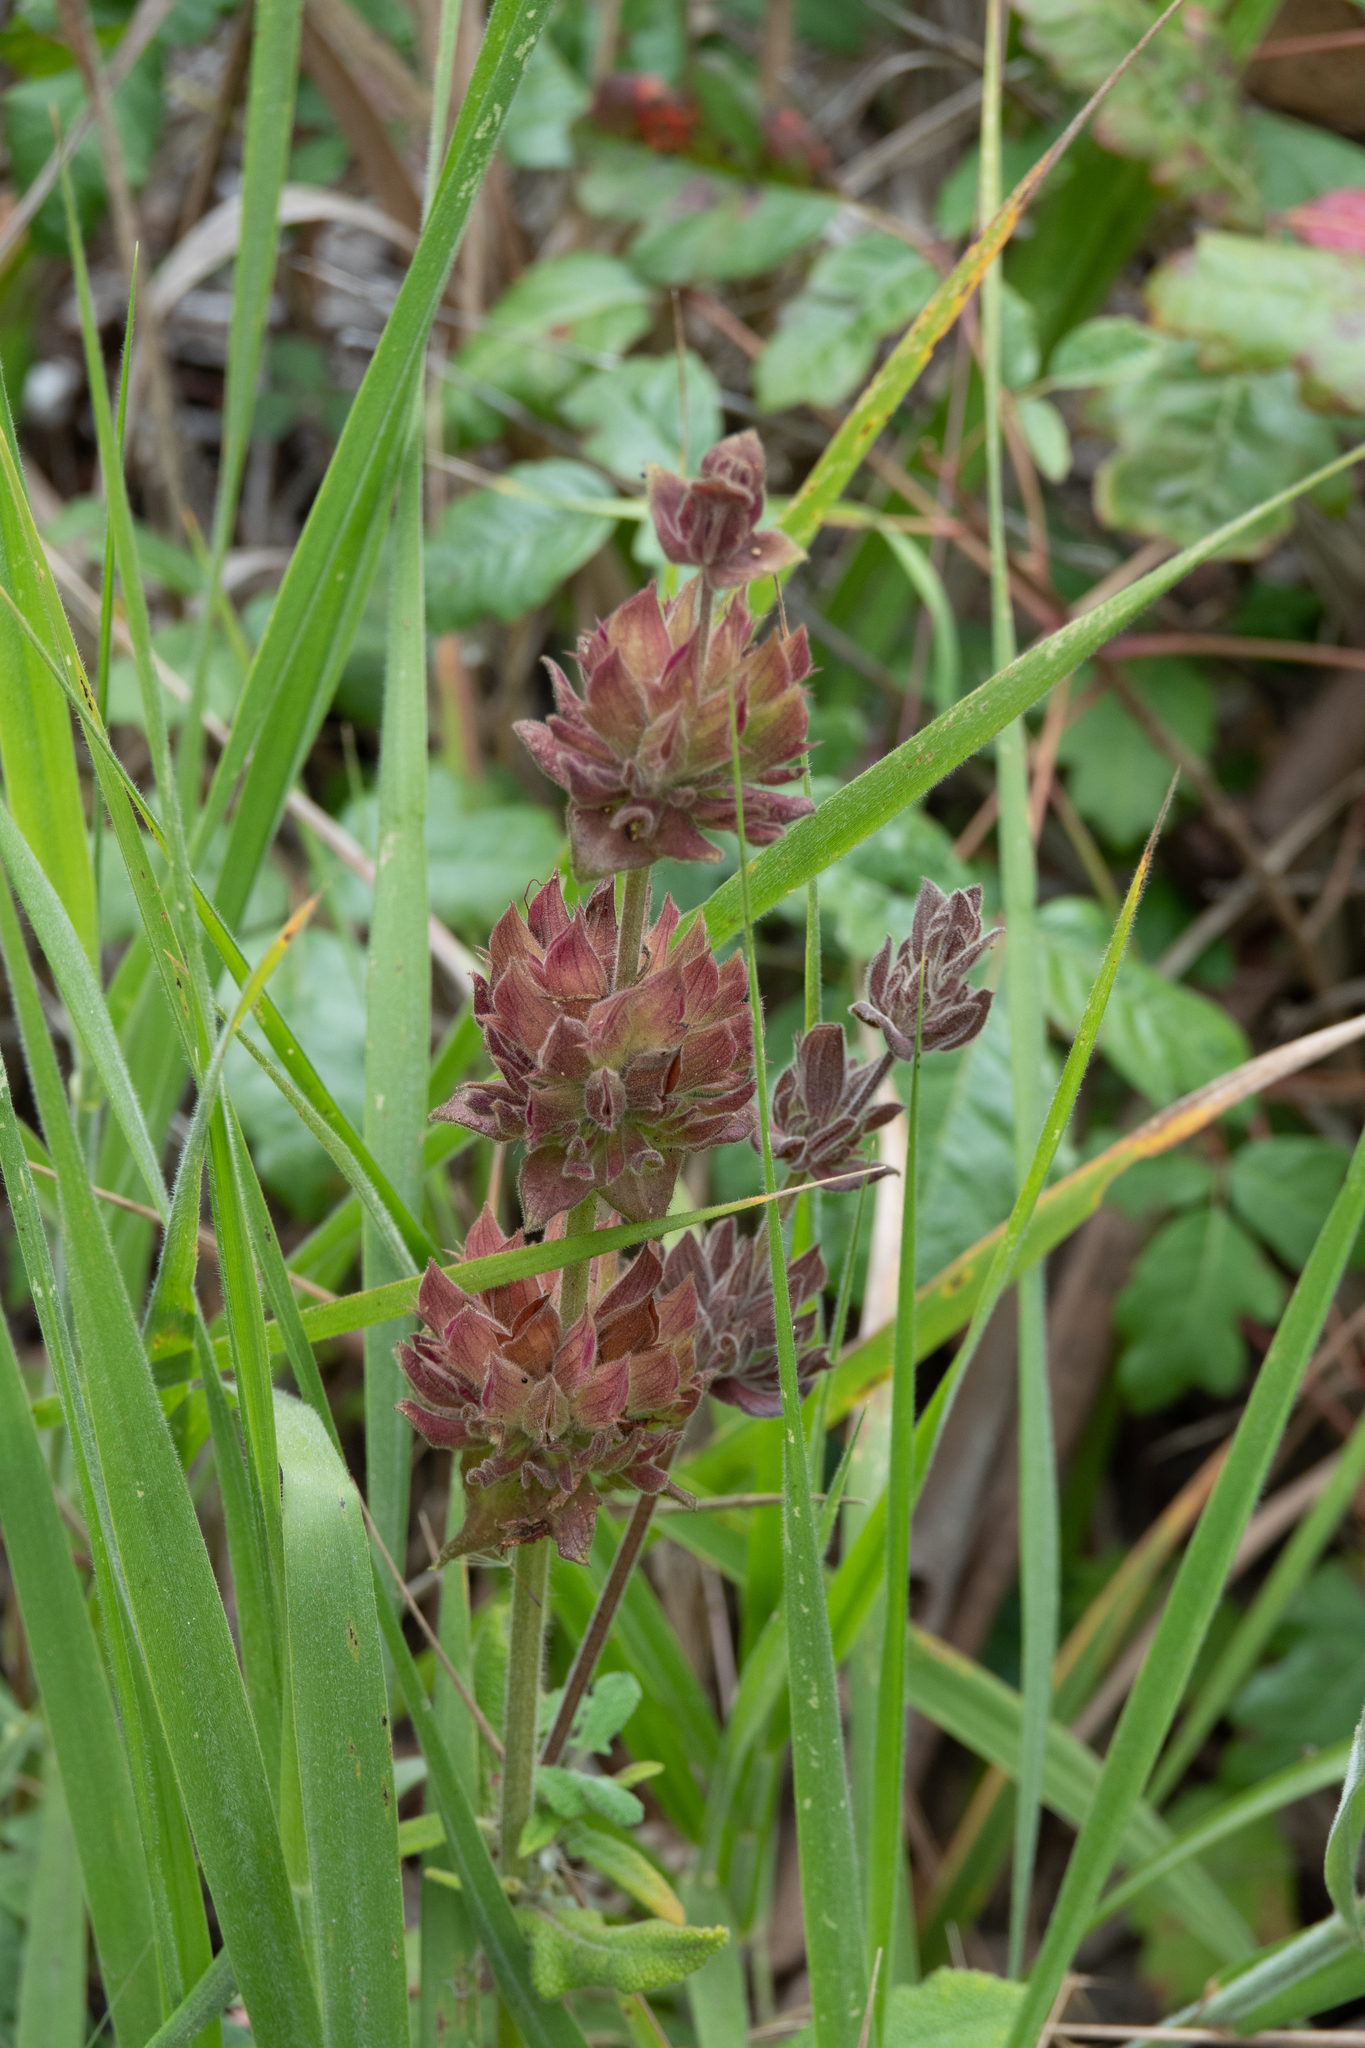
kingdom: Plantae
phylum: Tracheophyta
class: Magnoliopsida
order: Lamiales
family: Lamiaceae
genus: Salvia
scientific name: Salvia spathacea
